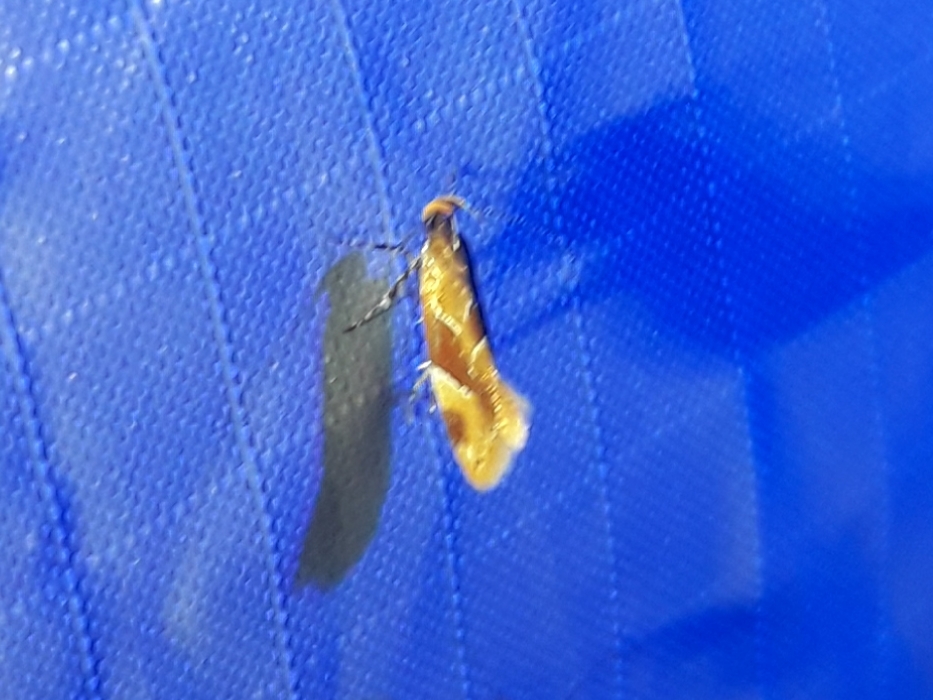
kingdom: Animalia
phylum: Arthropoda
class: Insecta
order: Lepidoptera
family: Oecophoridae
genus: Callima
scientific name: Callima formosella
